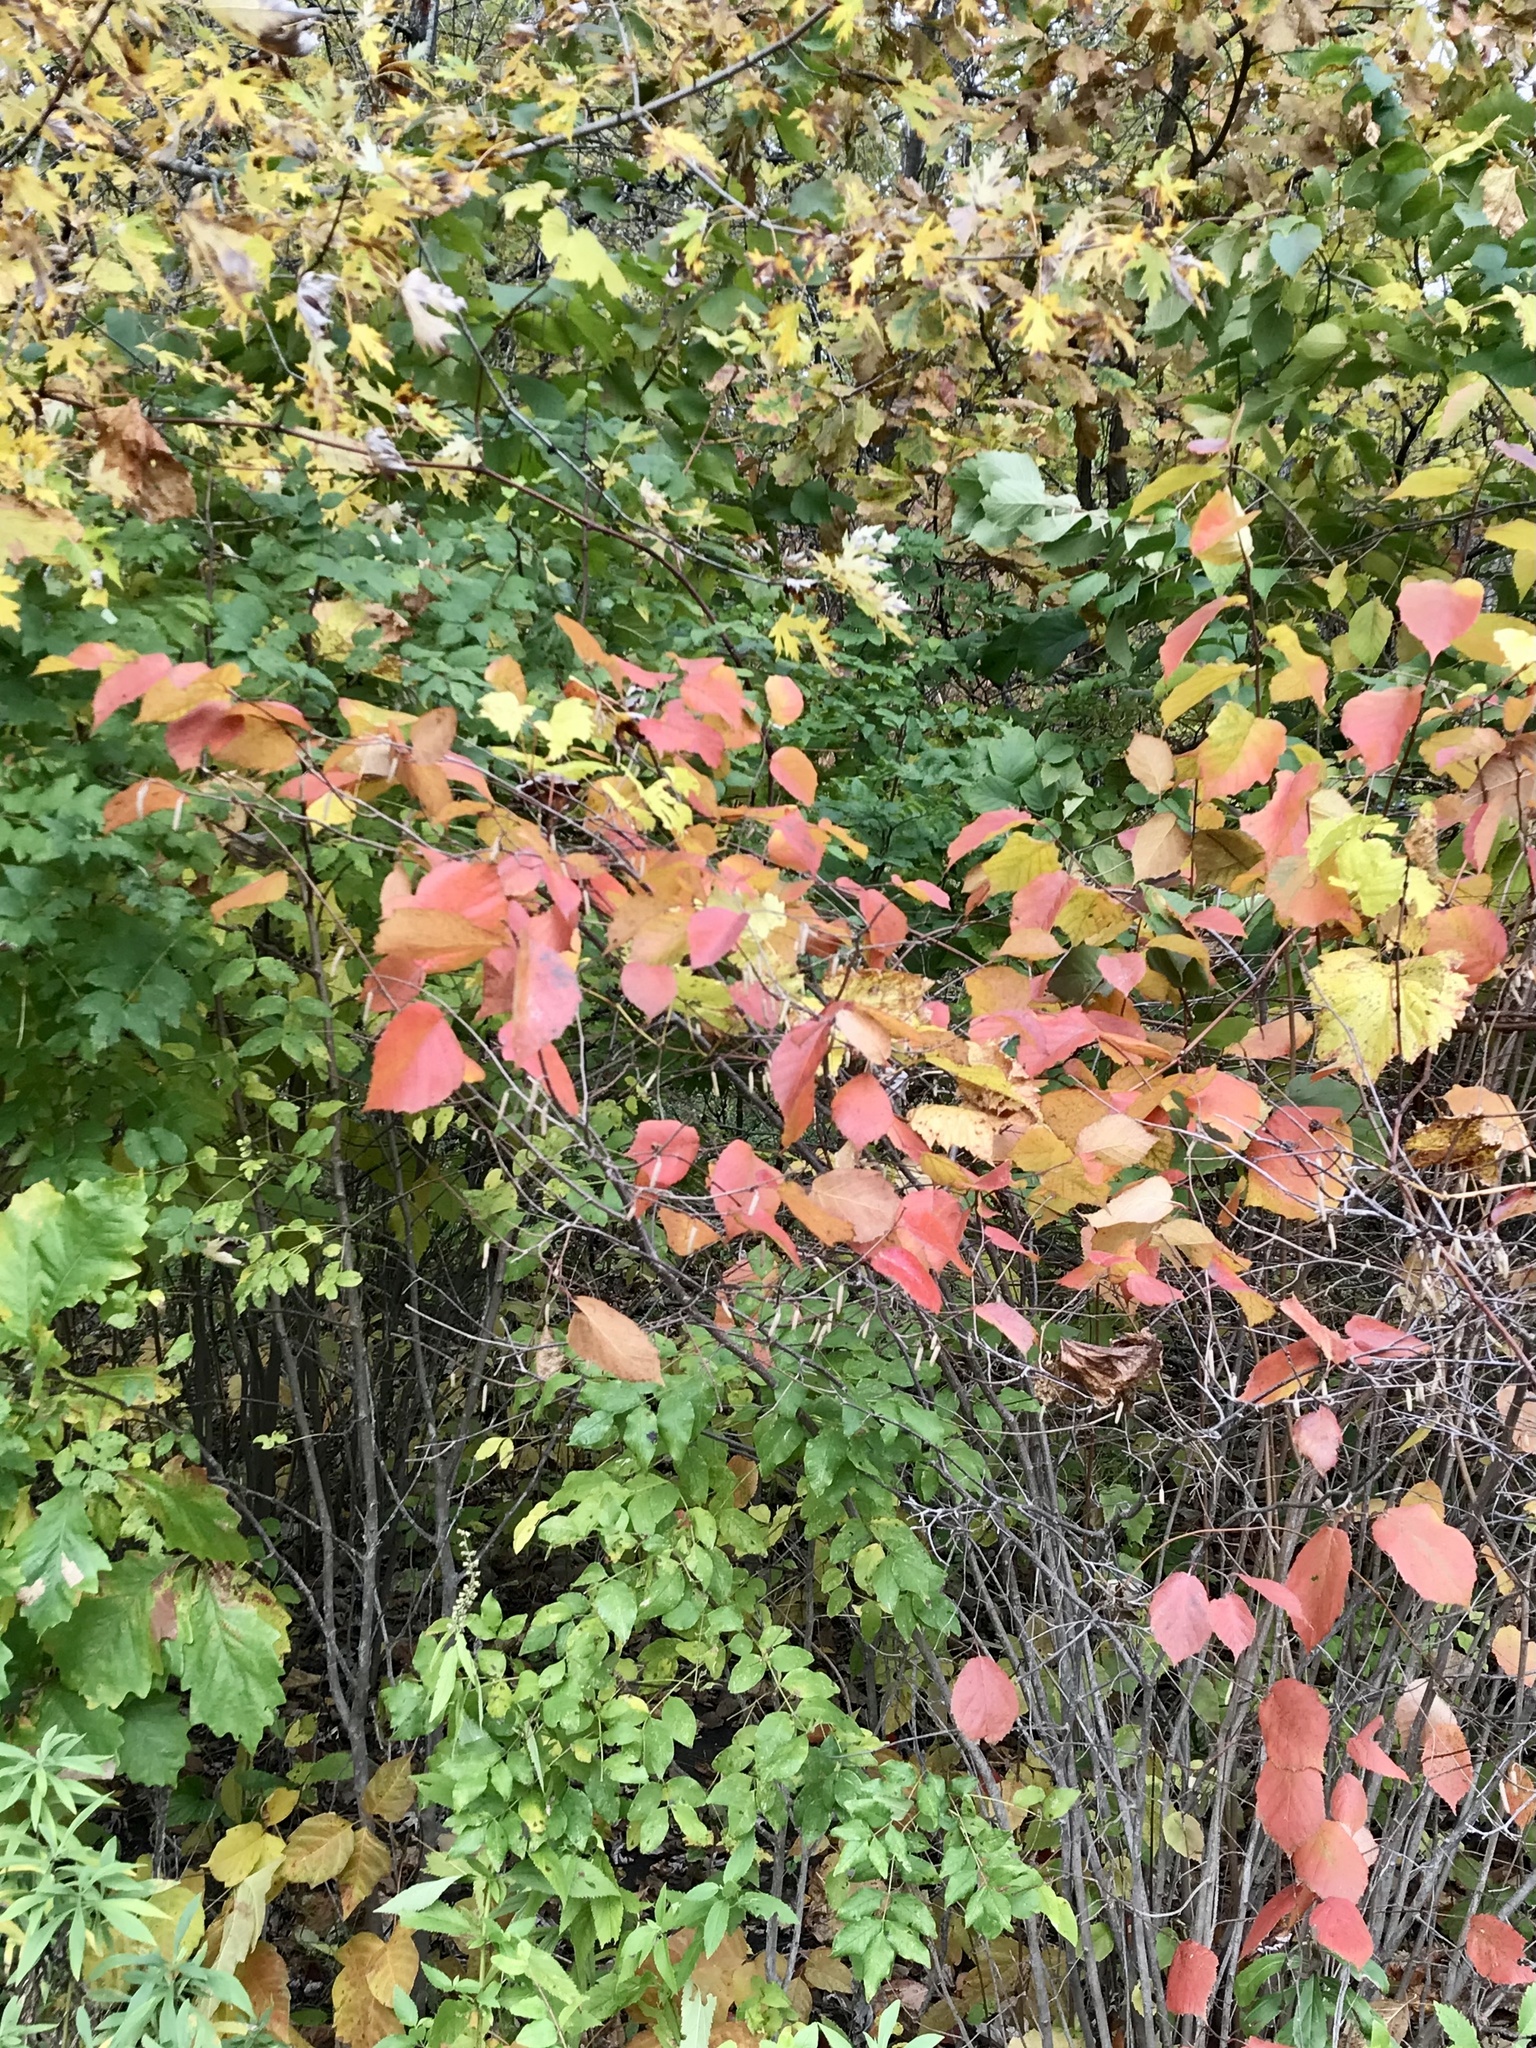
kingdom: Plantae
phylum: Tracheophyta
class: Magnoliopsida
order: Fagales
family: Betulaceae
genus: Corylus
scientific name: Corylus americana
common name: American hazel
